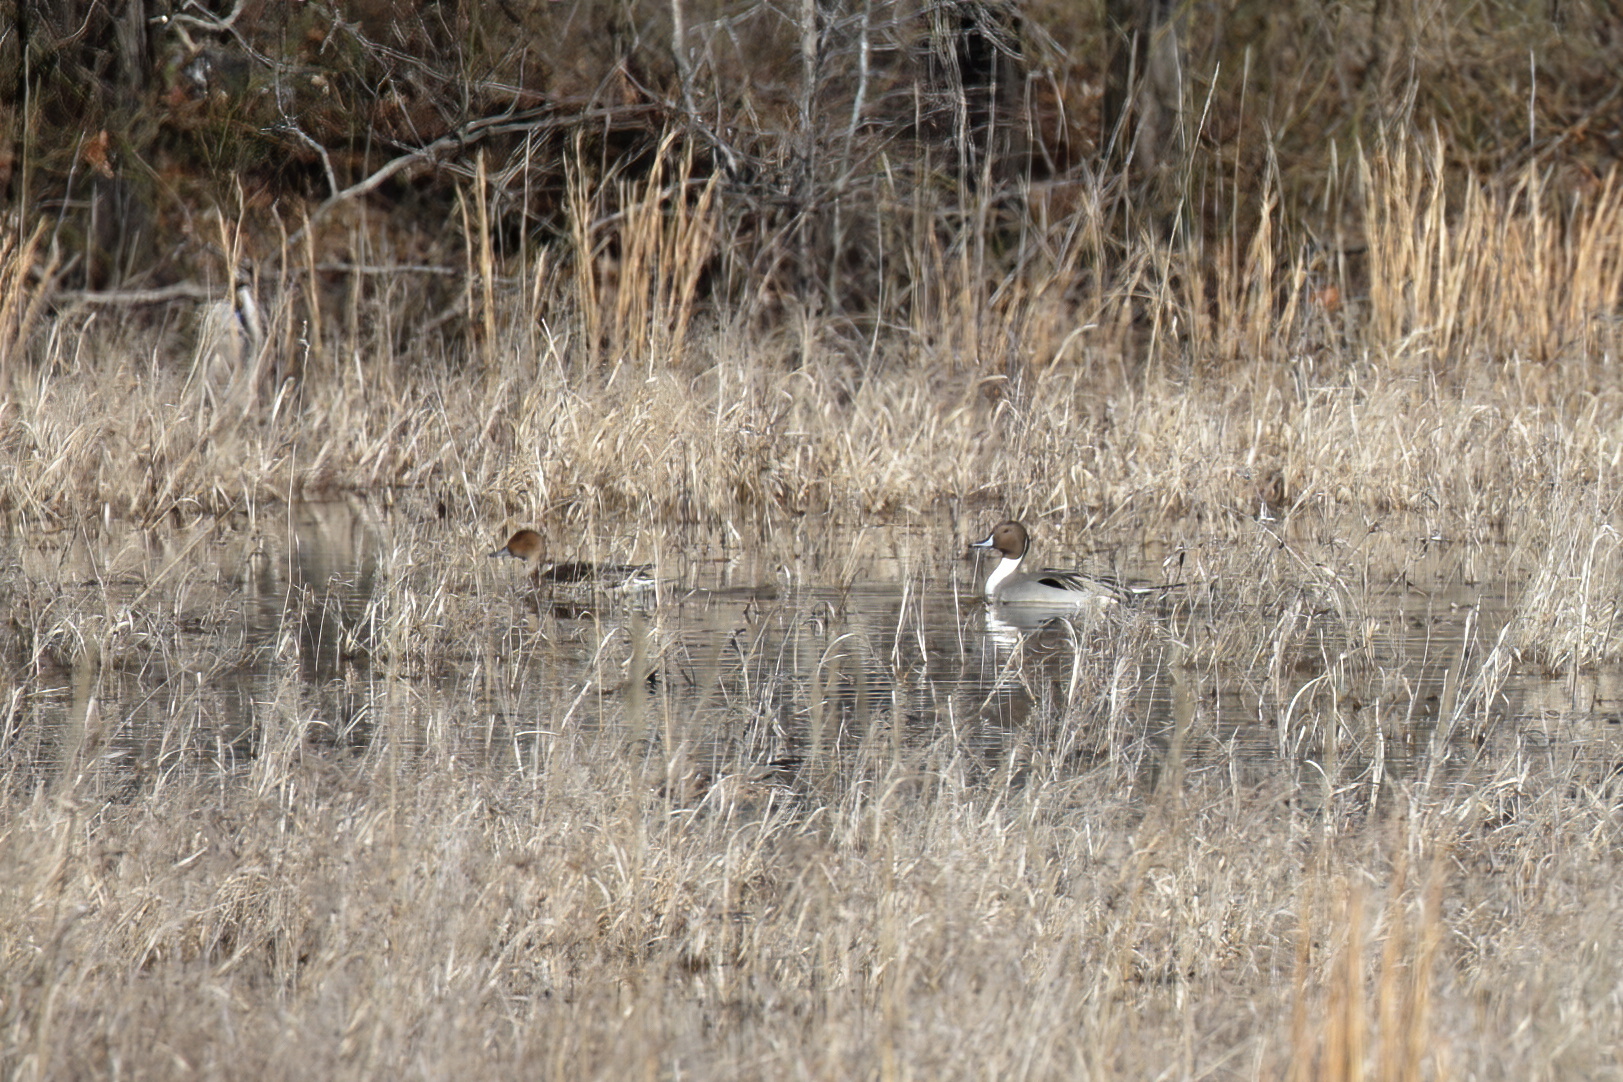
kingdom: Animalia
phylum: Chordata
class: Aves
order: Anseriformes
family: Anatidae
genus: Anas
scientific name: Anas acuta
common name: Northern pintail
